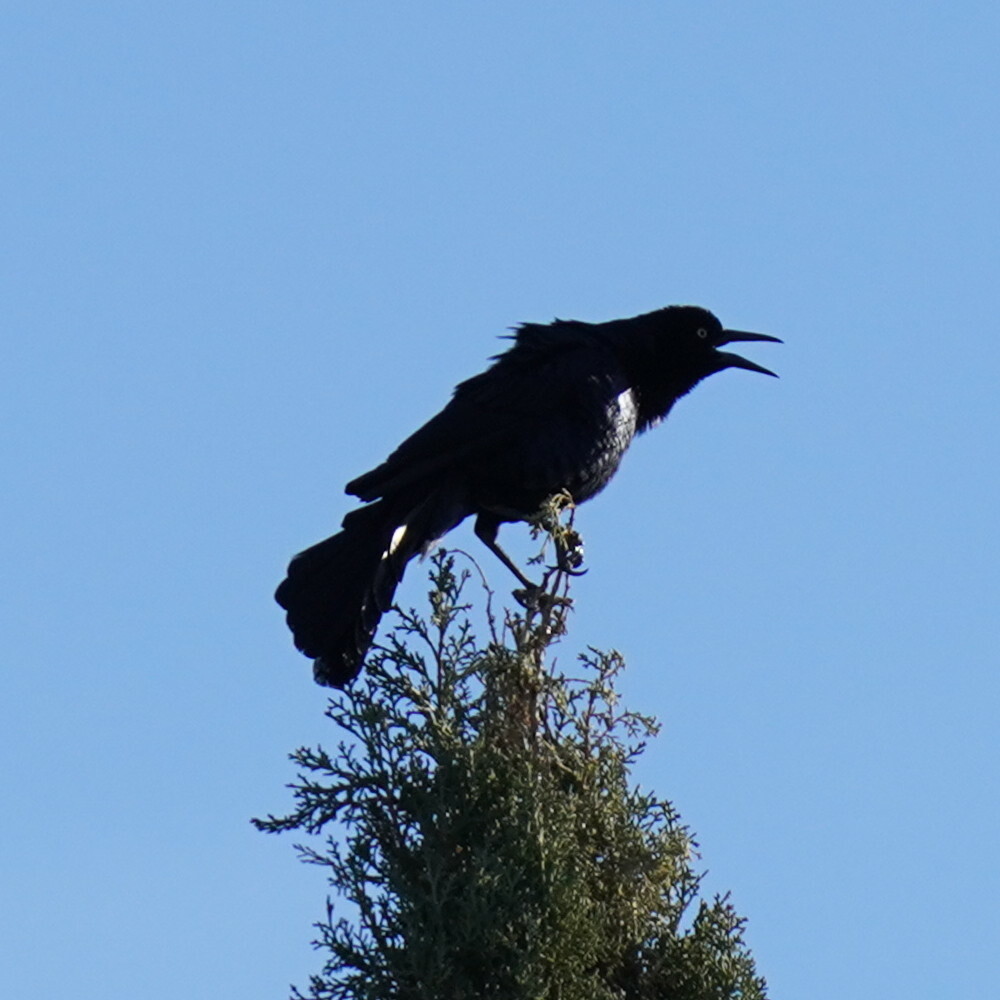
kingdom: Animalia
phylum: Chordata
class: Aves
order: Passeriformes
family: Icteridae
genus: Quiscalus
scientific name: Quiscalus mexicanus
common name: Great-tailed grackle
